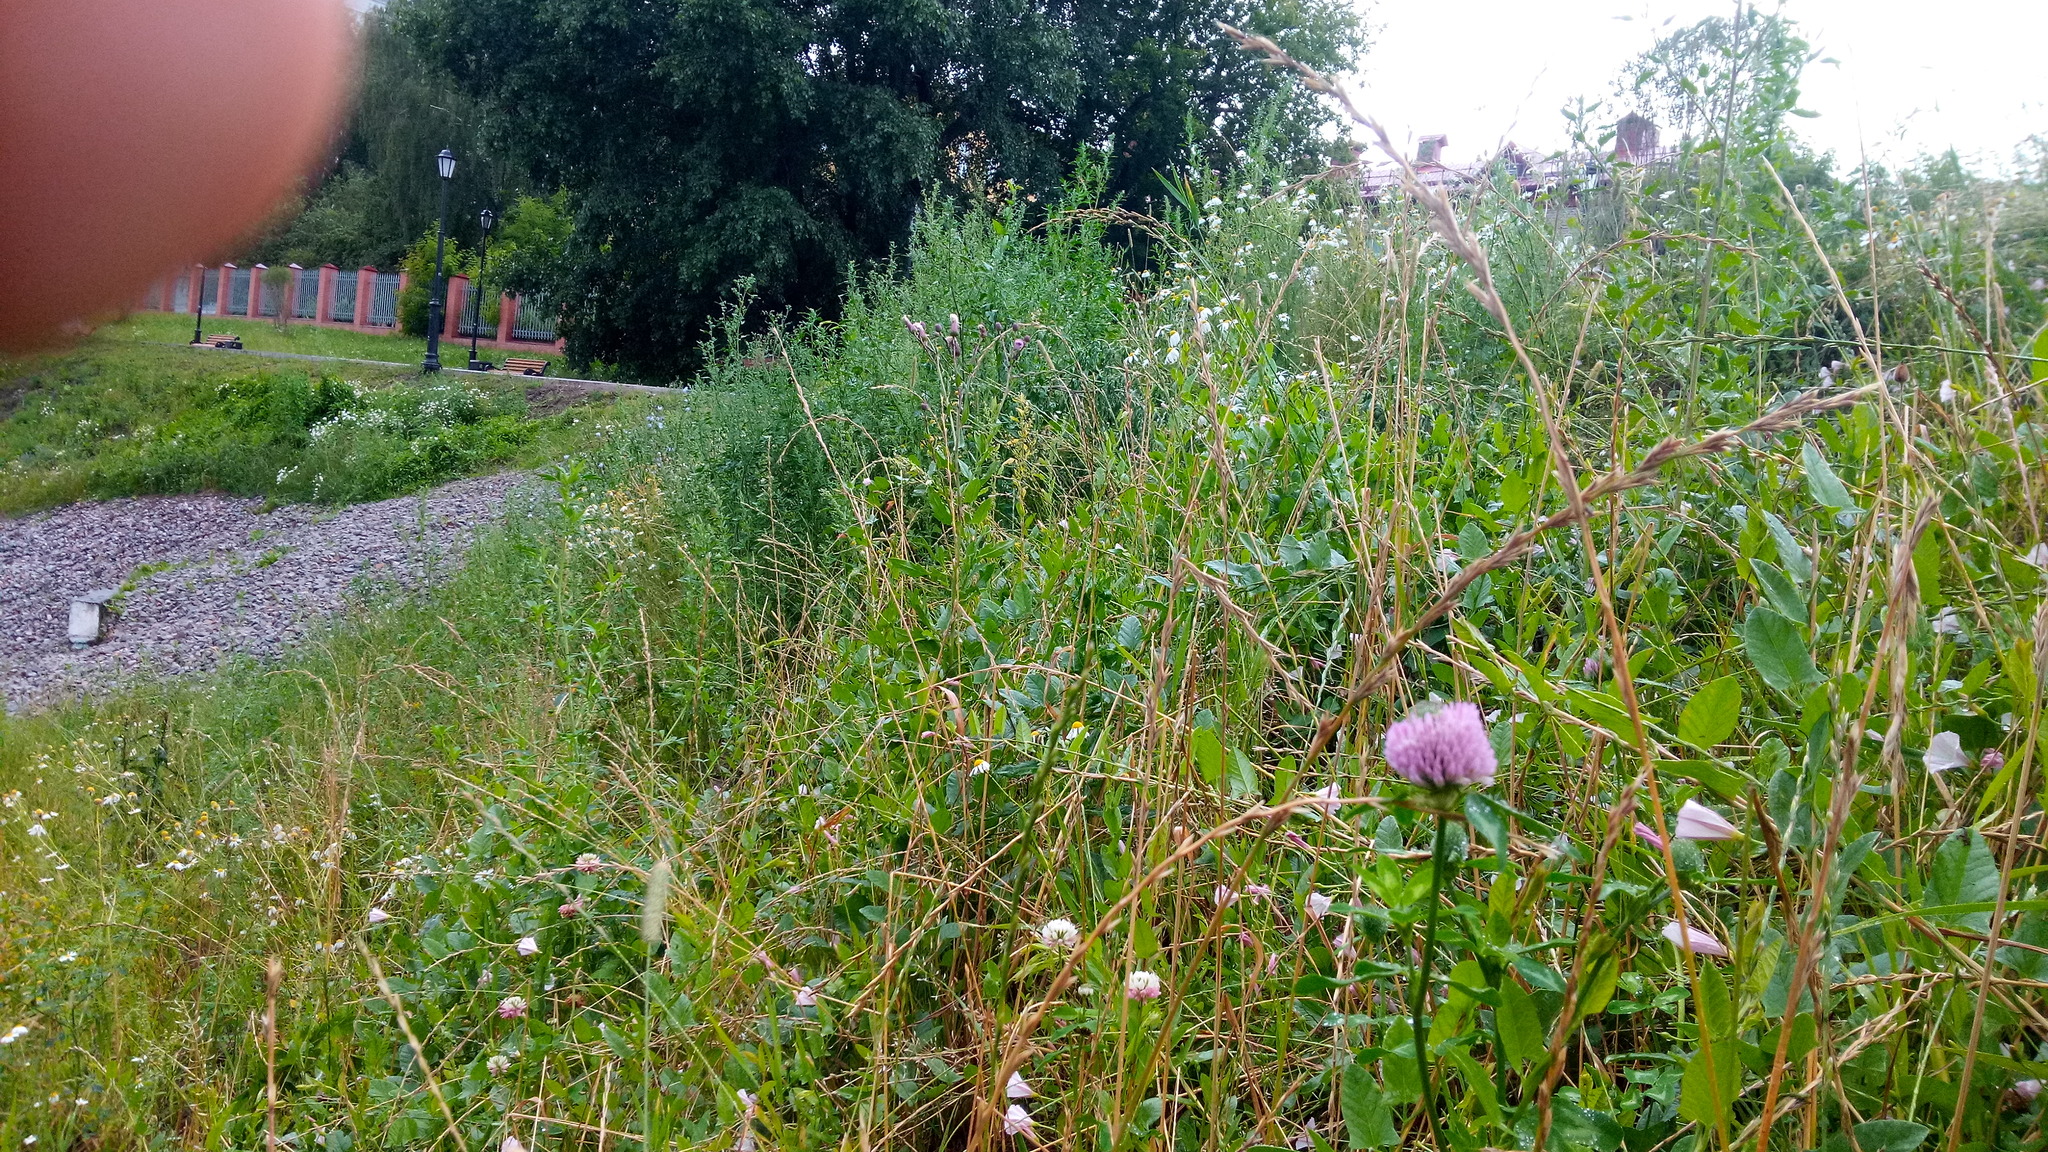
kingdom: Plantae
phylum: Tracheophyta
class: Magnoliopsida
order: Fabales
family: Fabaceae
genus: Trifolium
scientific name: Trifolium pratense
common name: Red clover
